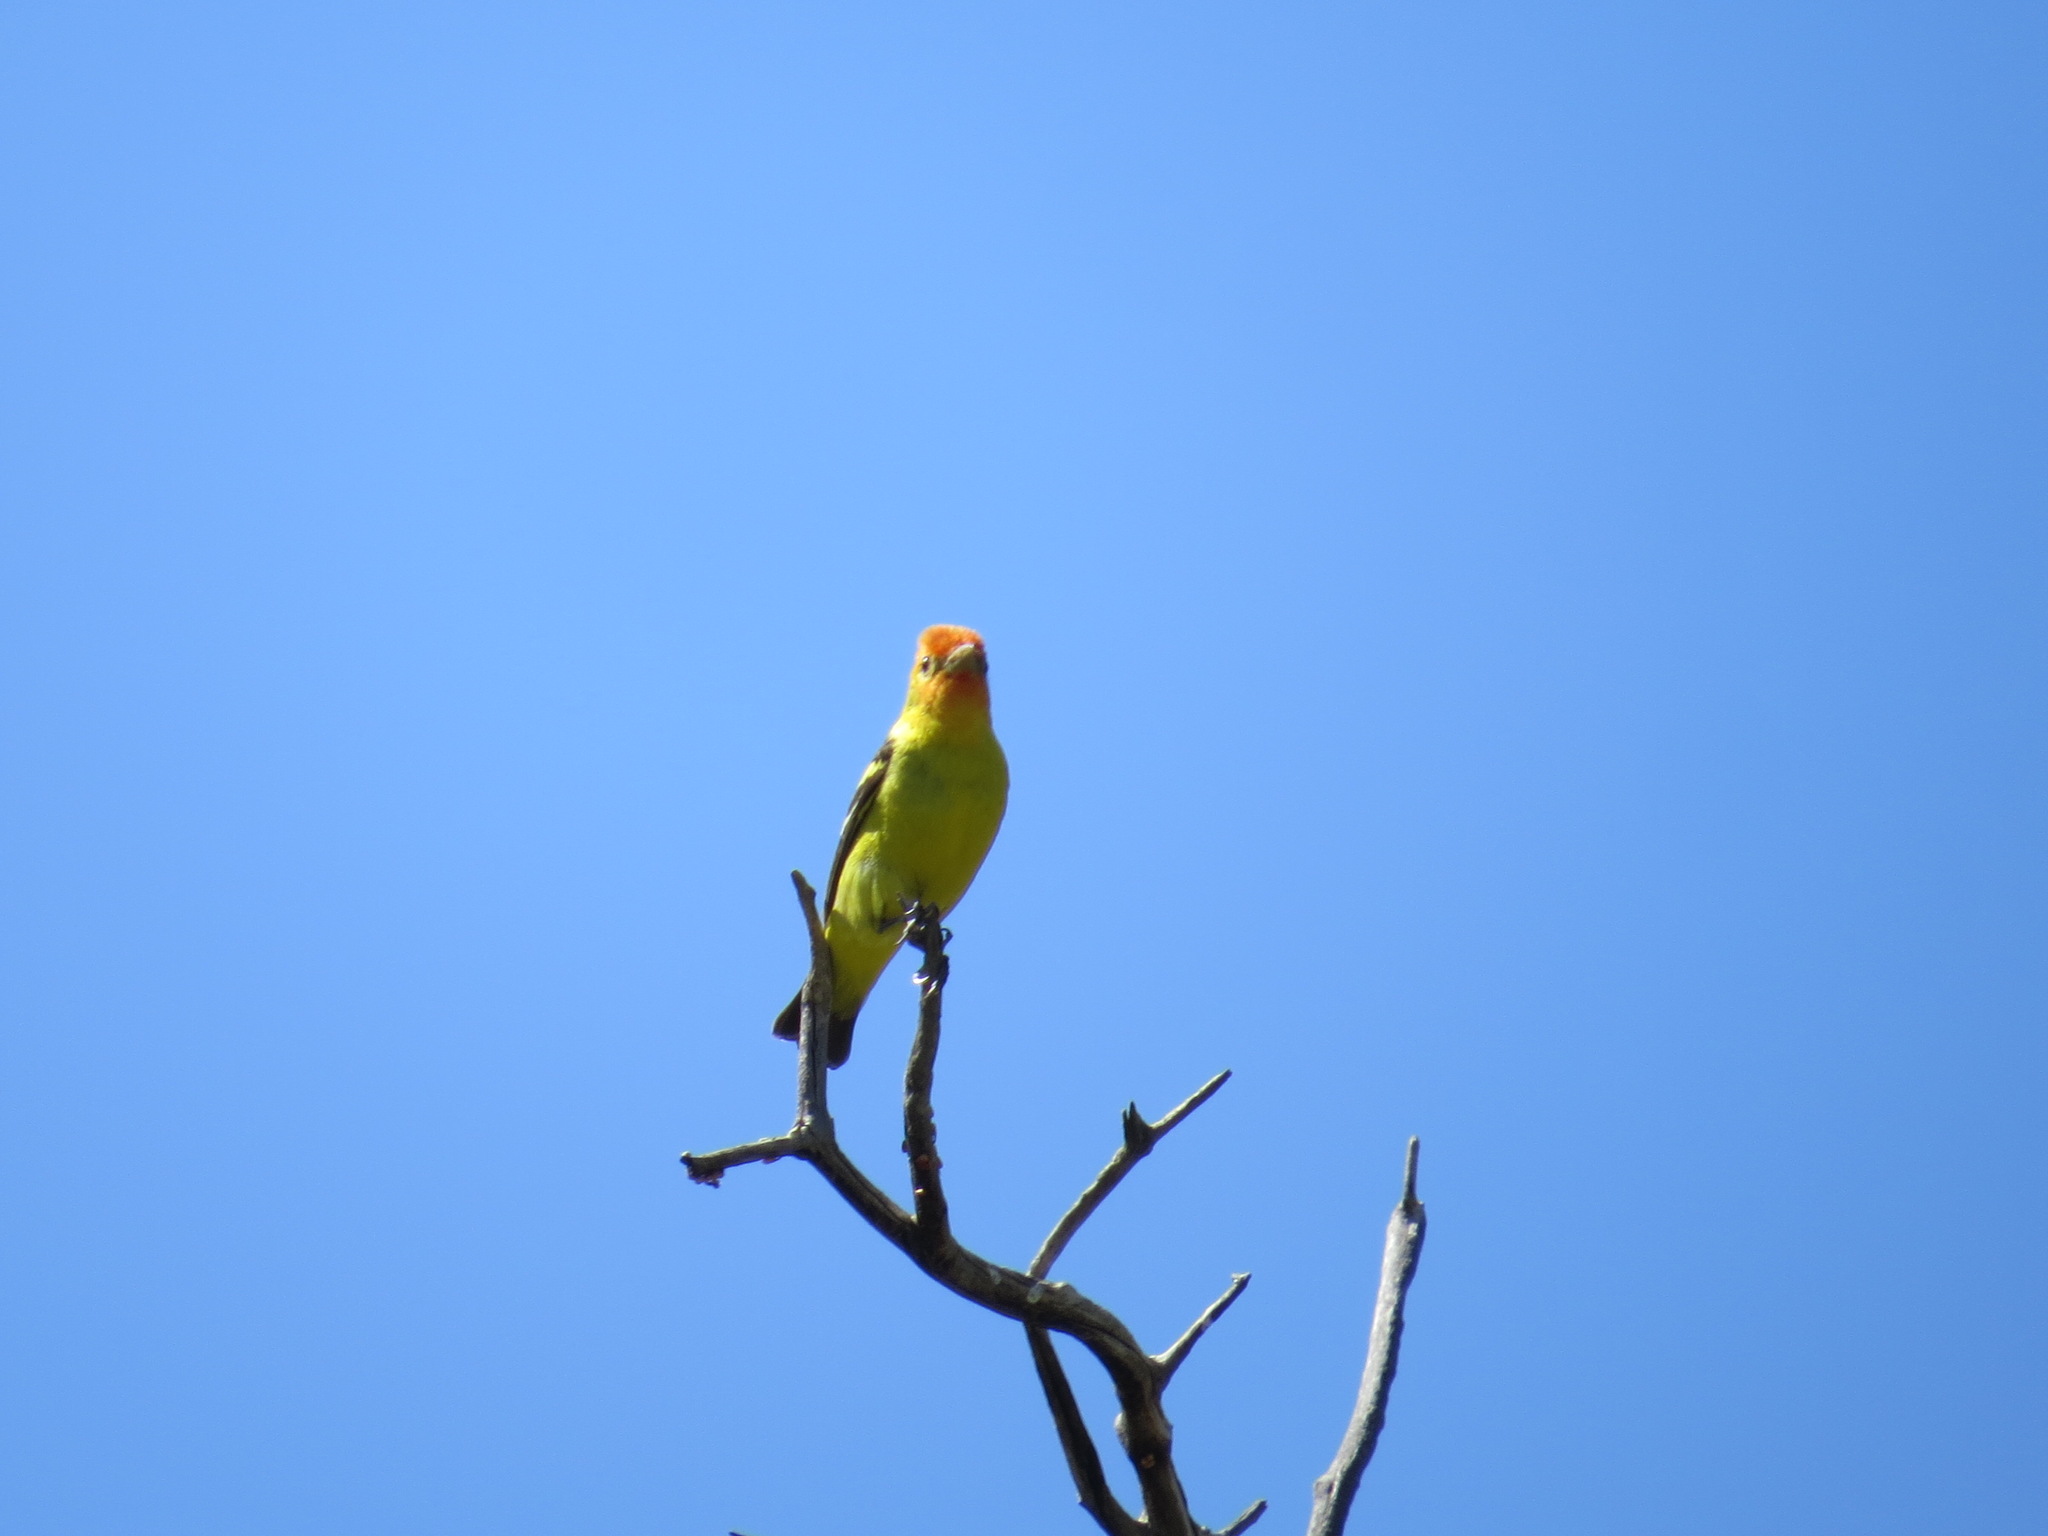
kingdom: Animalia
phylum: Chordata
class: Aves
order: Passeriformes
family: Cardinalidae
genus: Piranga
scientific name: Piranga ludoviciana
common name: Western tanager
